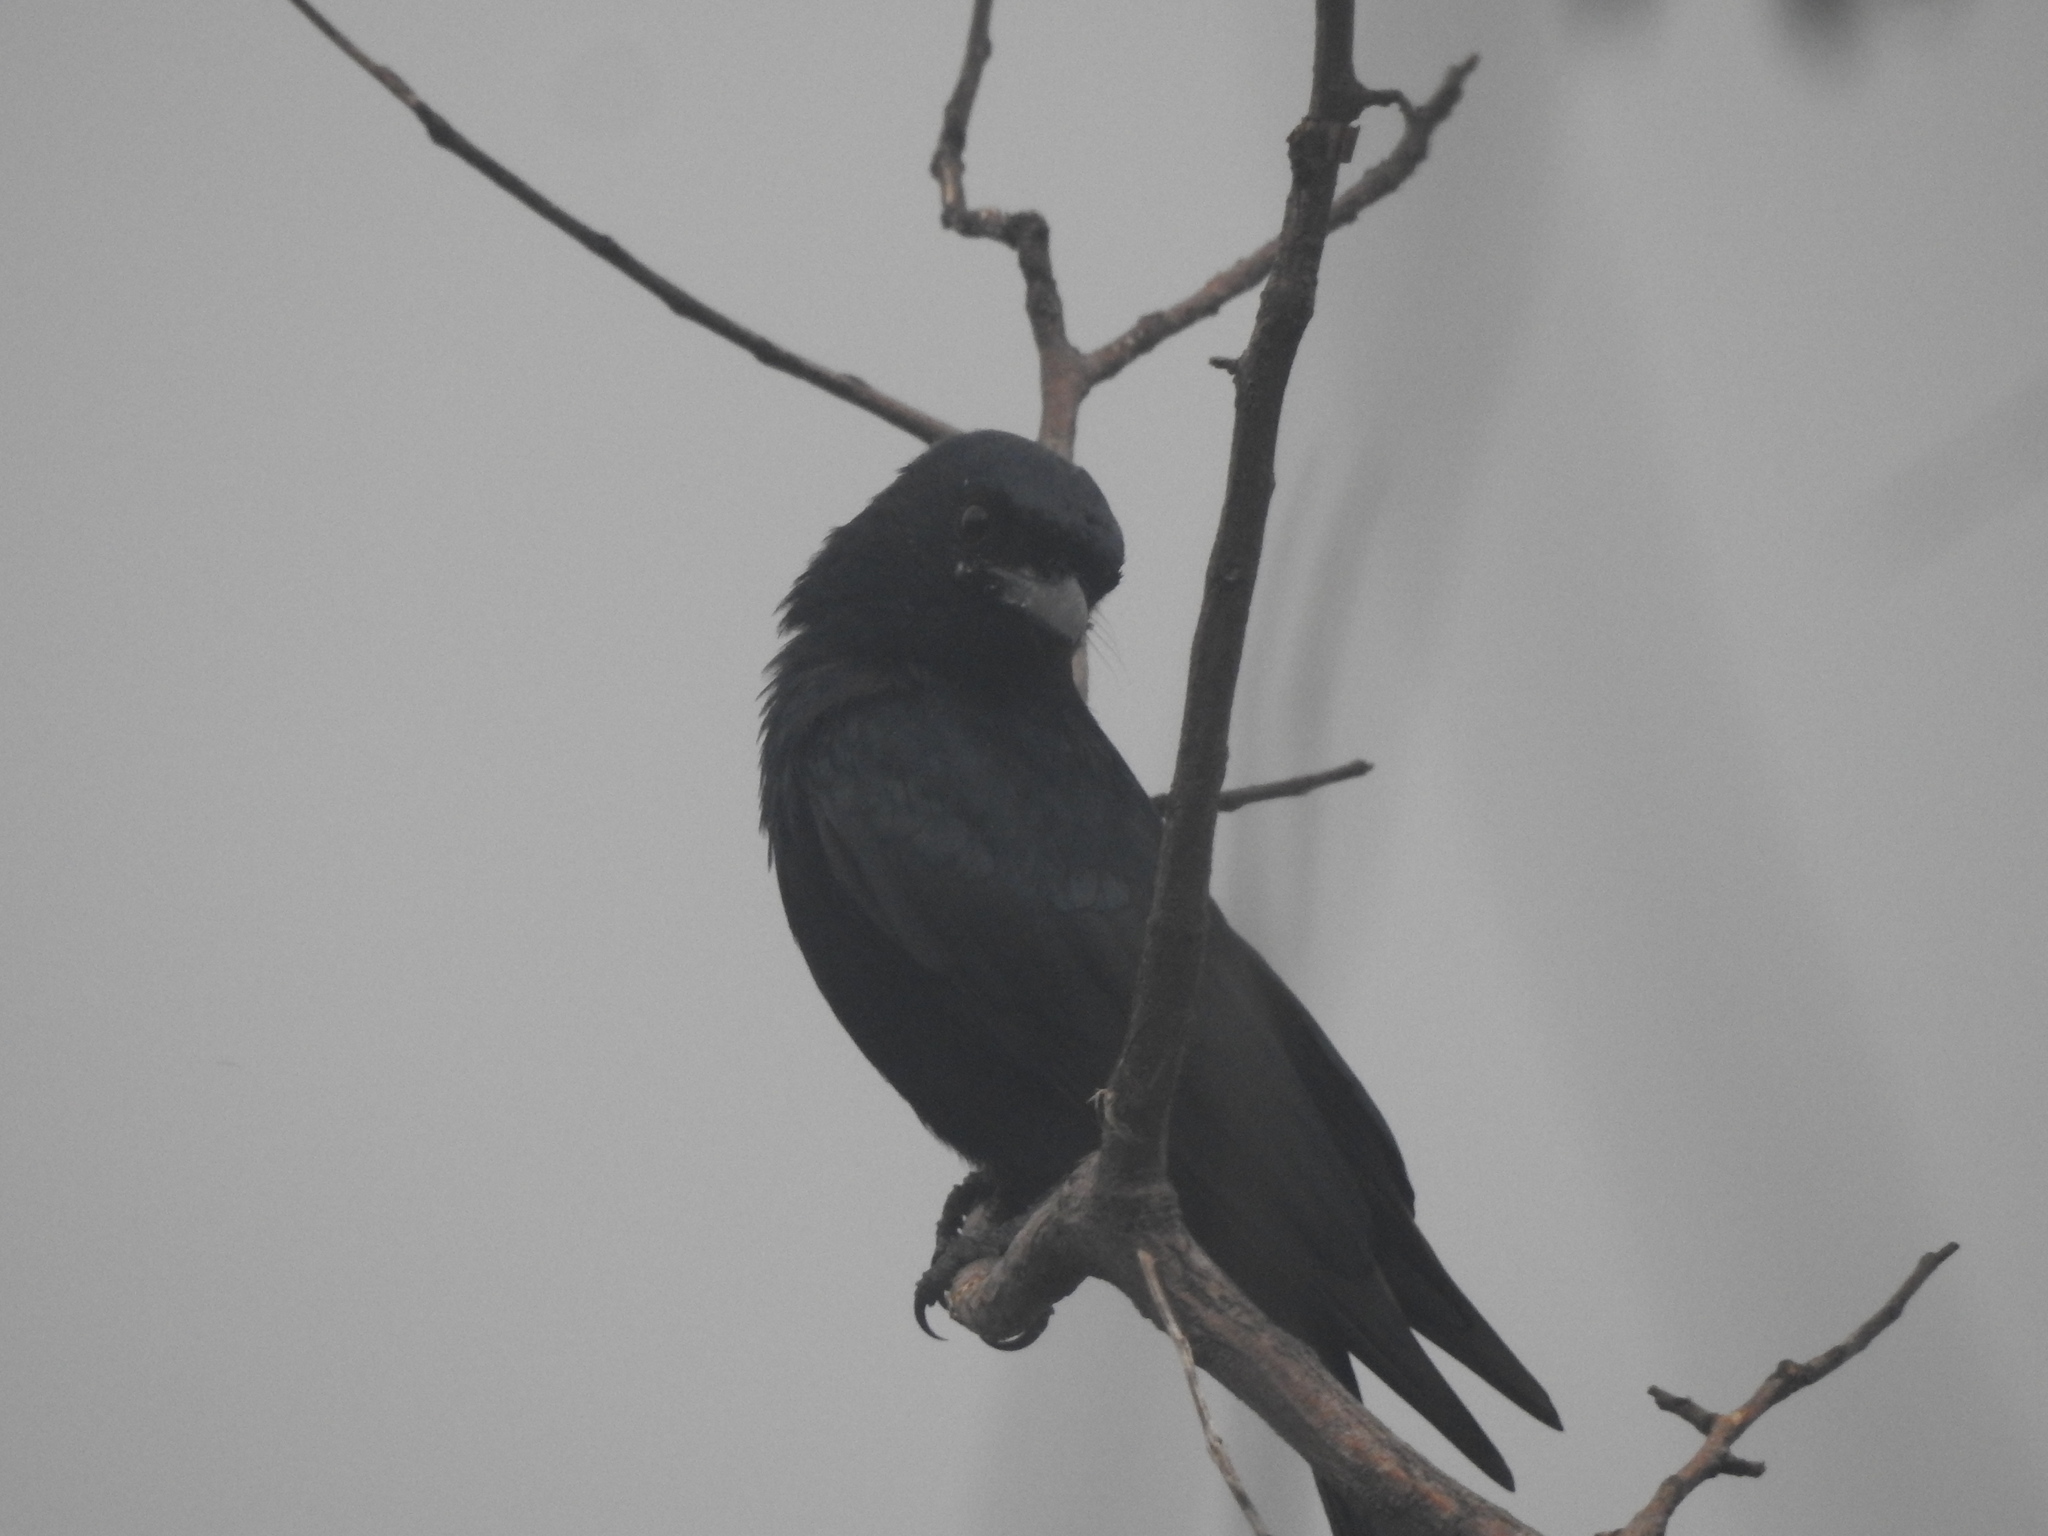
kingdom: Animalia
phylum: Chordata
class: Aves
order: Passeriformes
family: Dicruridae
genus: Dicrurus
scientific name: Dicrurus macrocercus
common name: Black drongo
